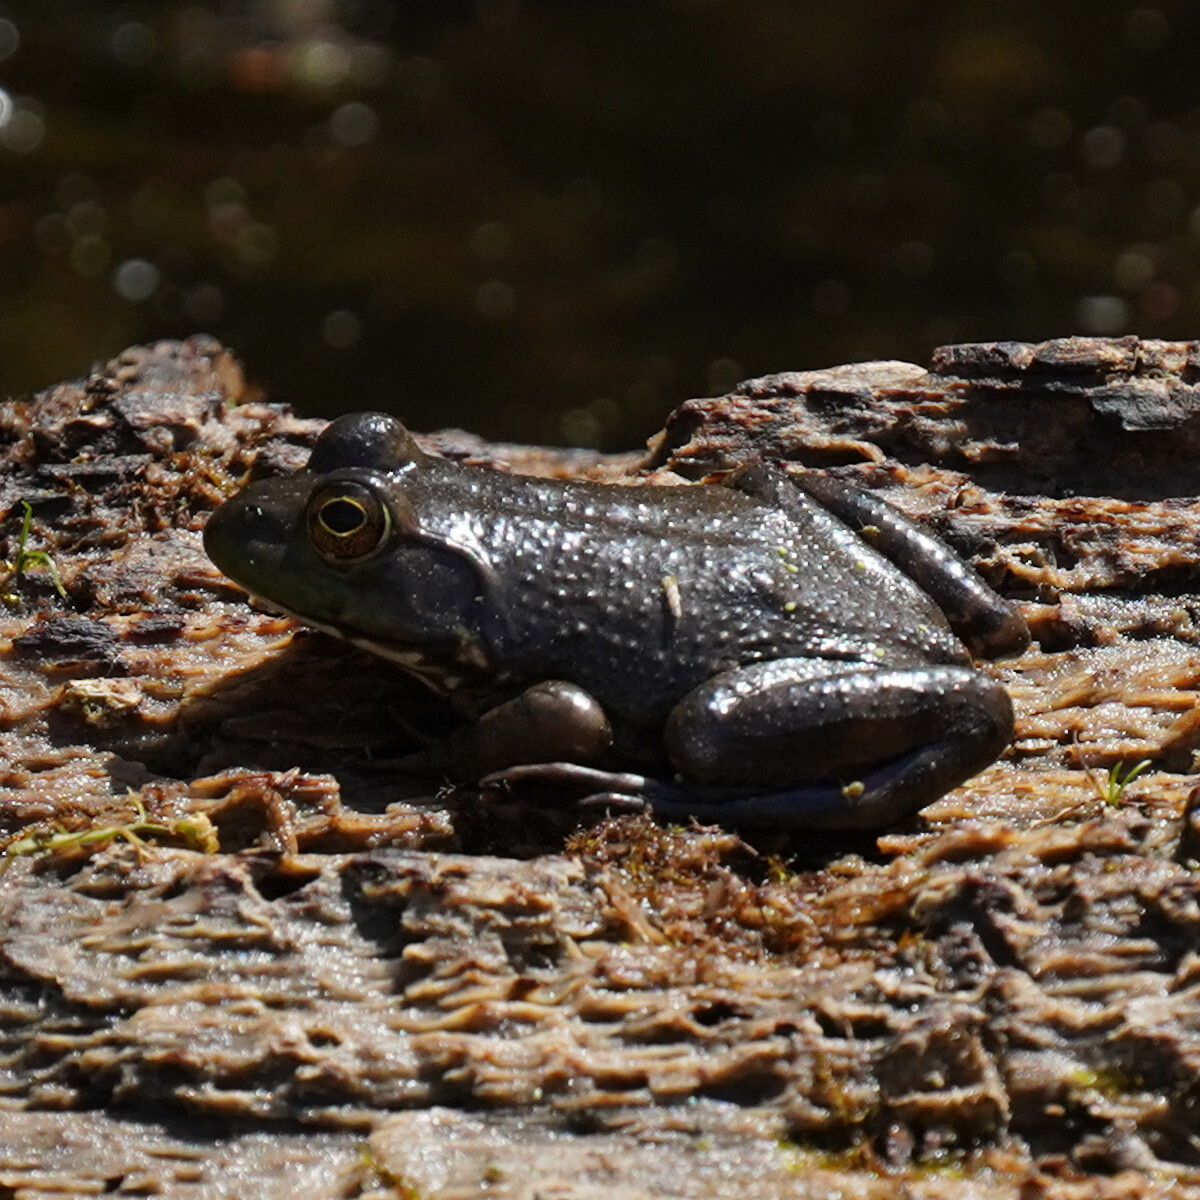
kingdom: Animalia
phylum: Chordata
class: Amphibia
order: Anura
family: Ranidae
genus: Lithobates
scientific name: Lithobates catesbeianus
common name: American bullfrog
